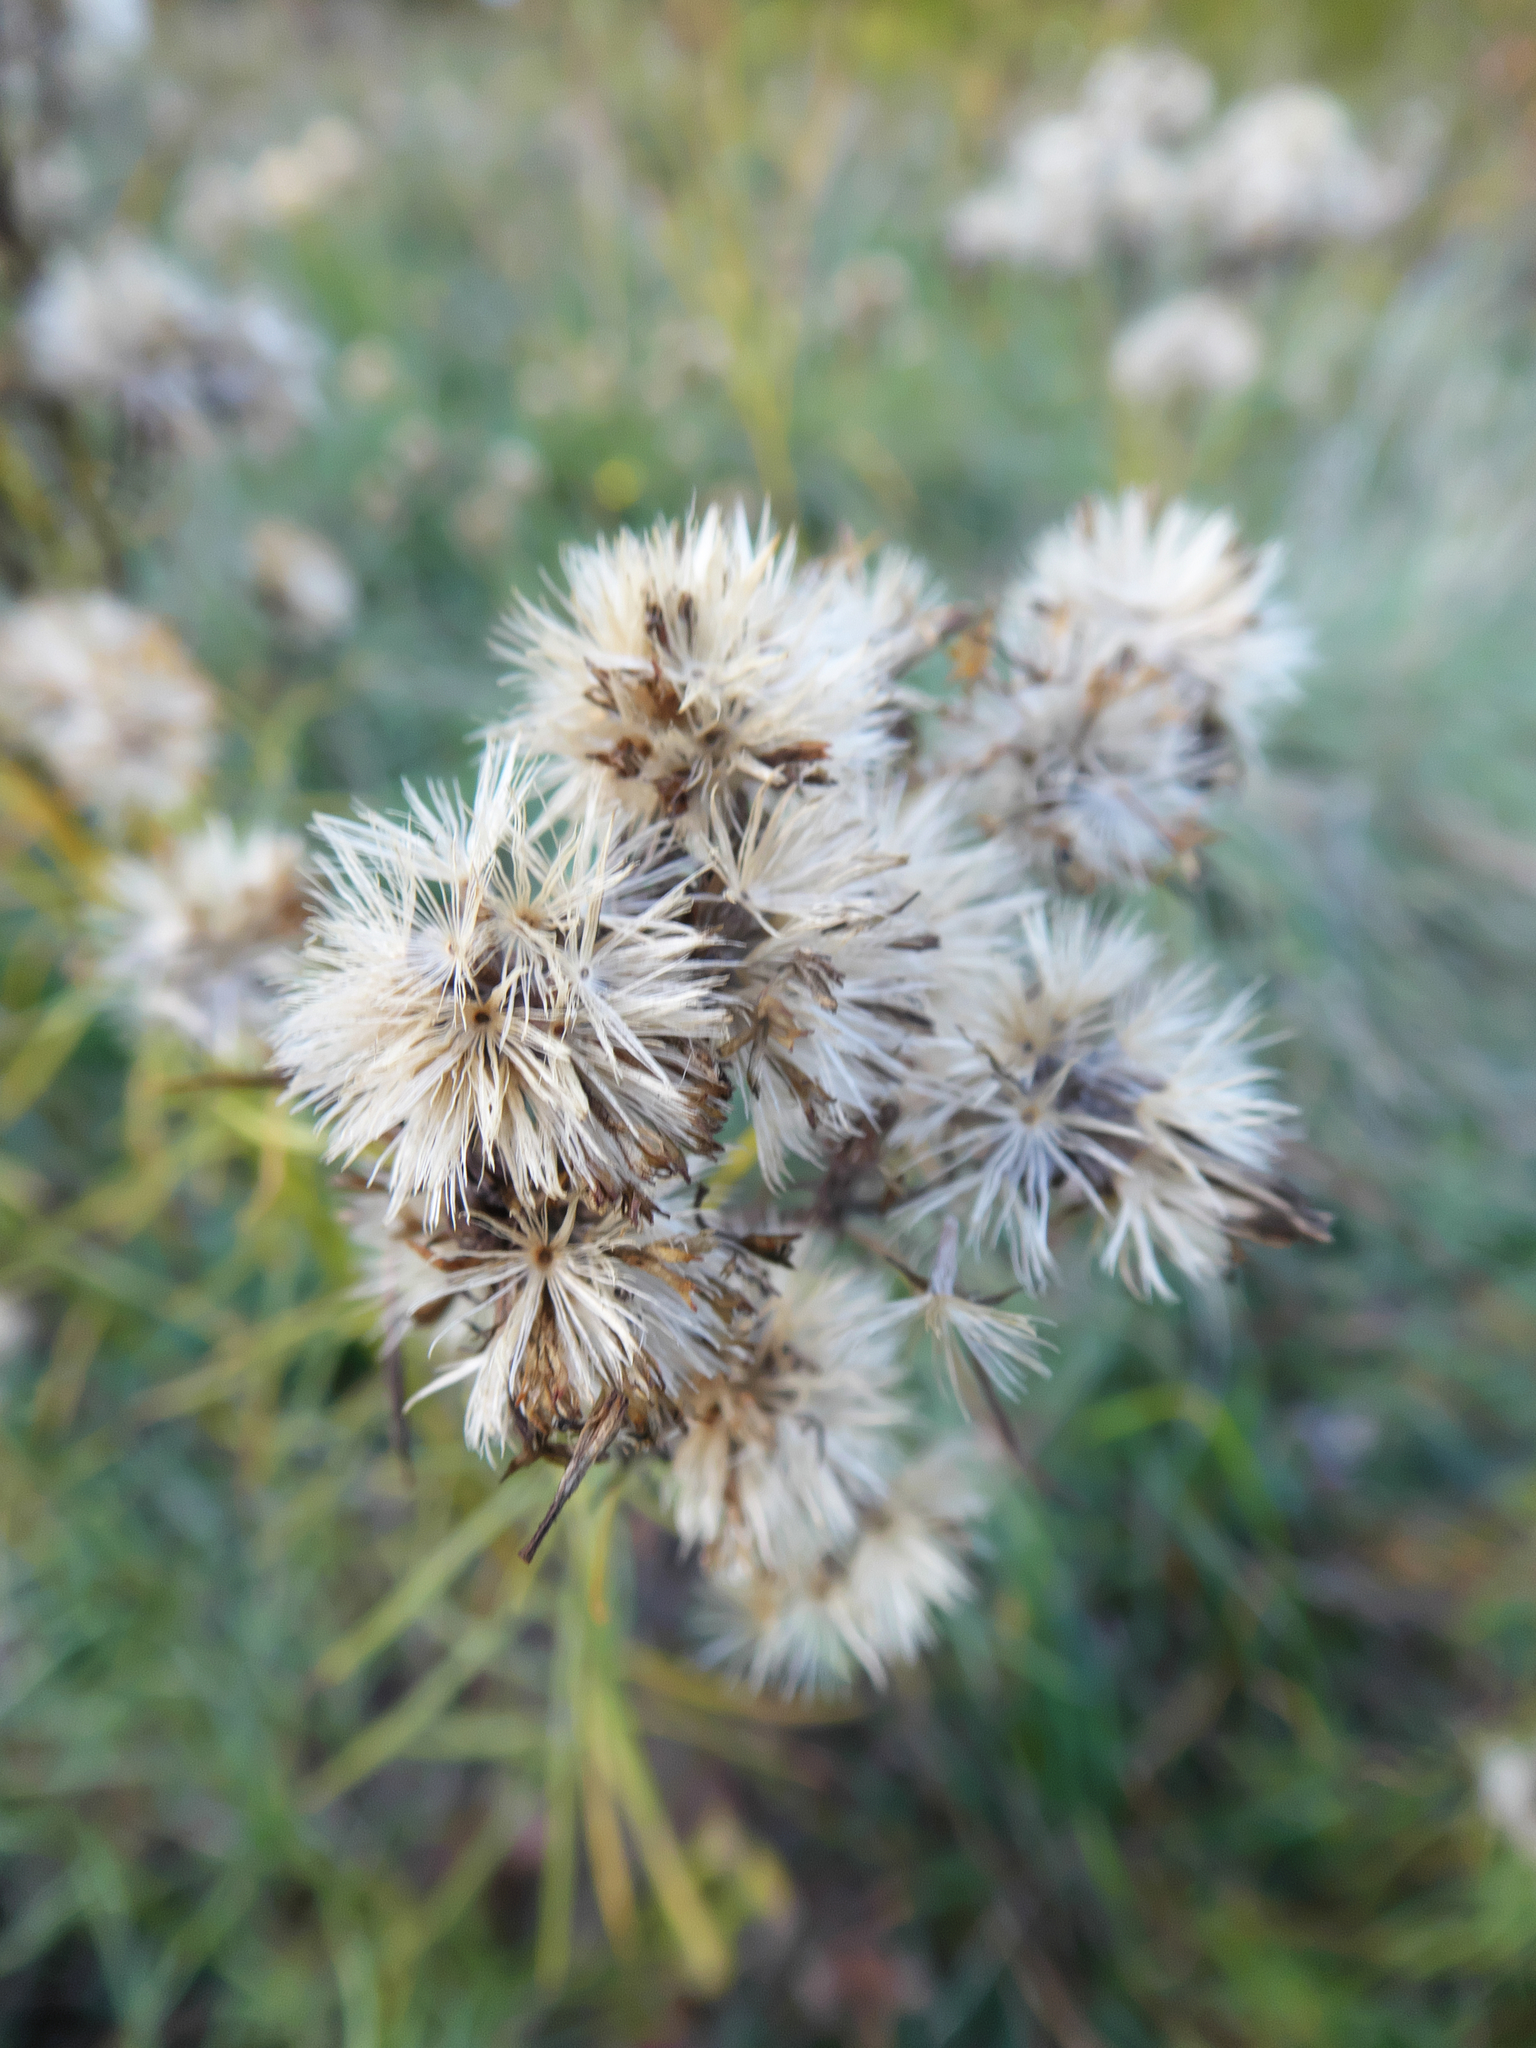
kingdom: Plantae
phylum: Tracheophyta
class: Magnoliopsida
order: Asterales
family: Asteraceae
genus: Galatella
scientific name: Galatella linosyris
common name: Goldilocks aster
